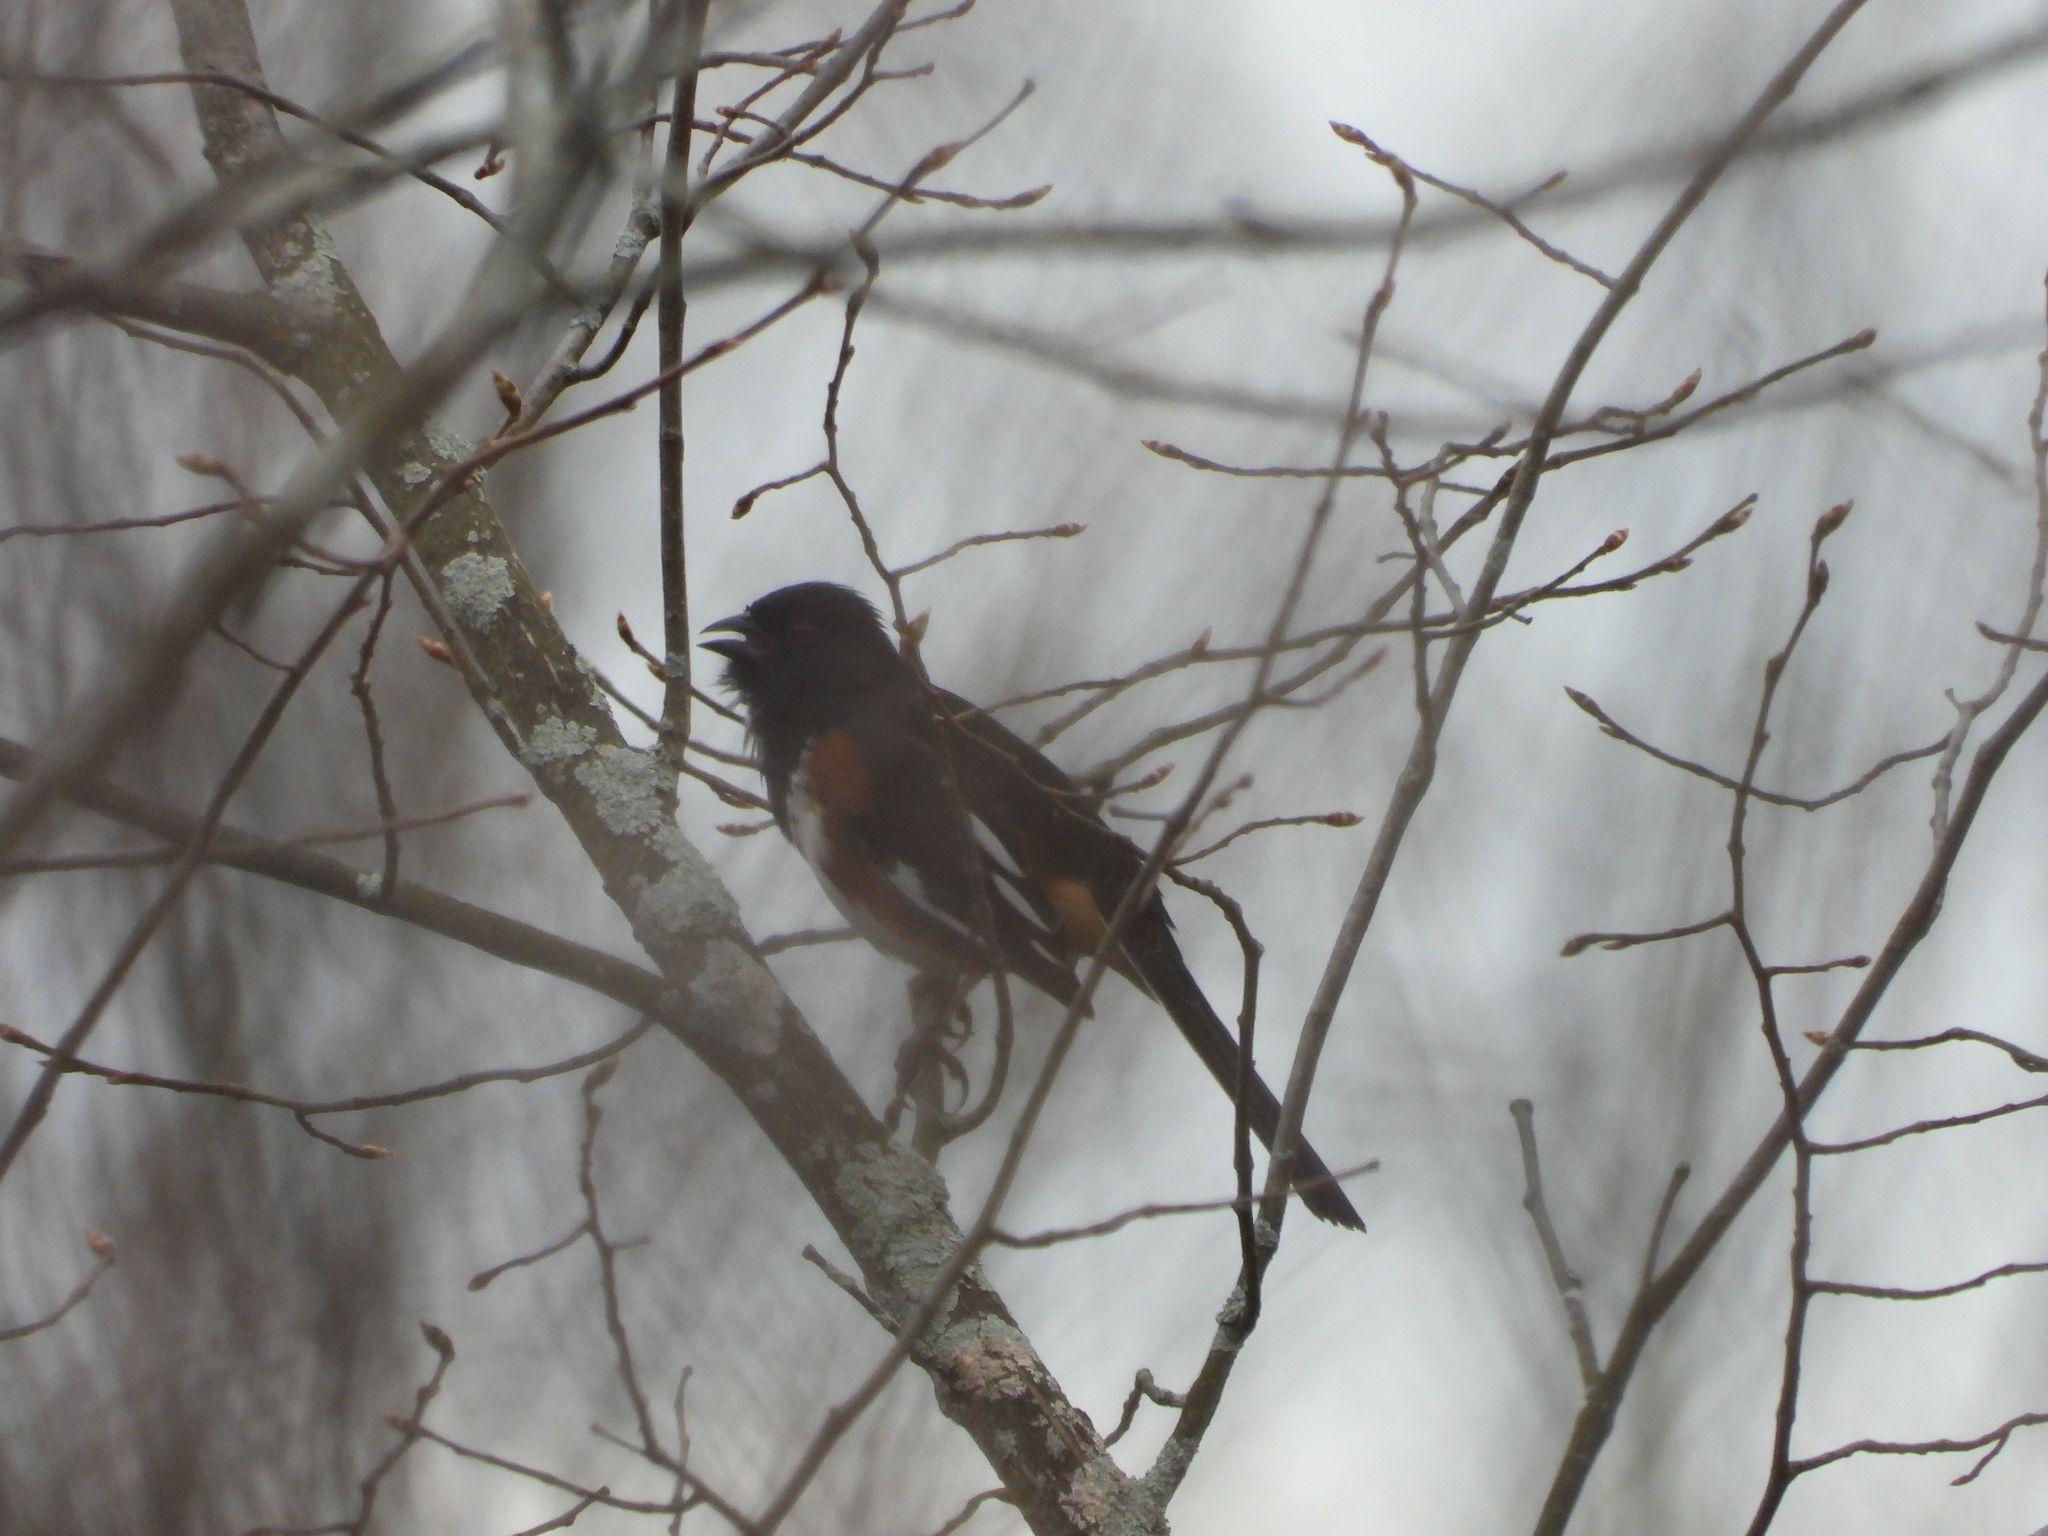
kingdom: Animalia
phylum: Chordata
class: Aves
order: Passeriformes
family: Passerellidae
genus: Pipilo
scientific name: Pipilo erythrophthalmus
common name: Eastern towhee
